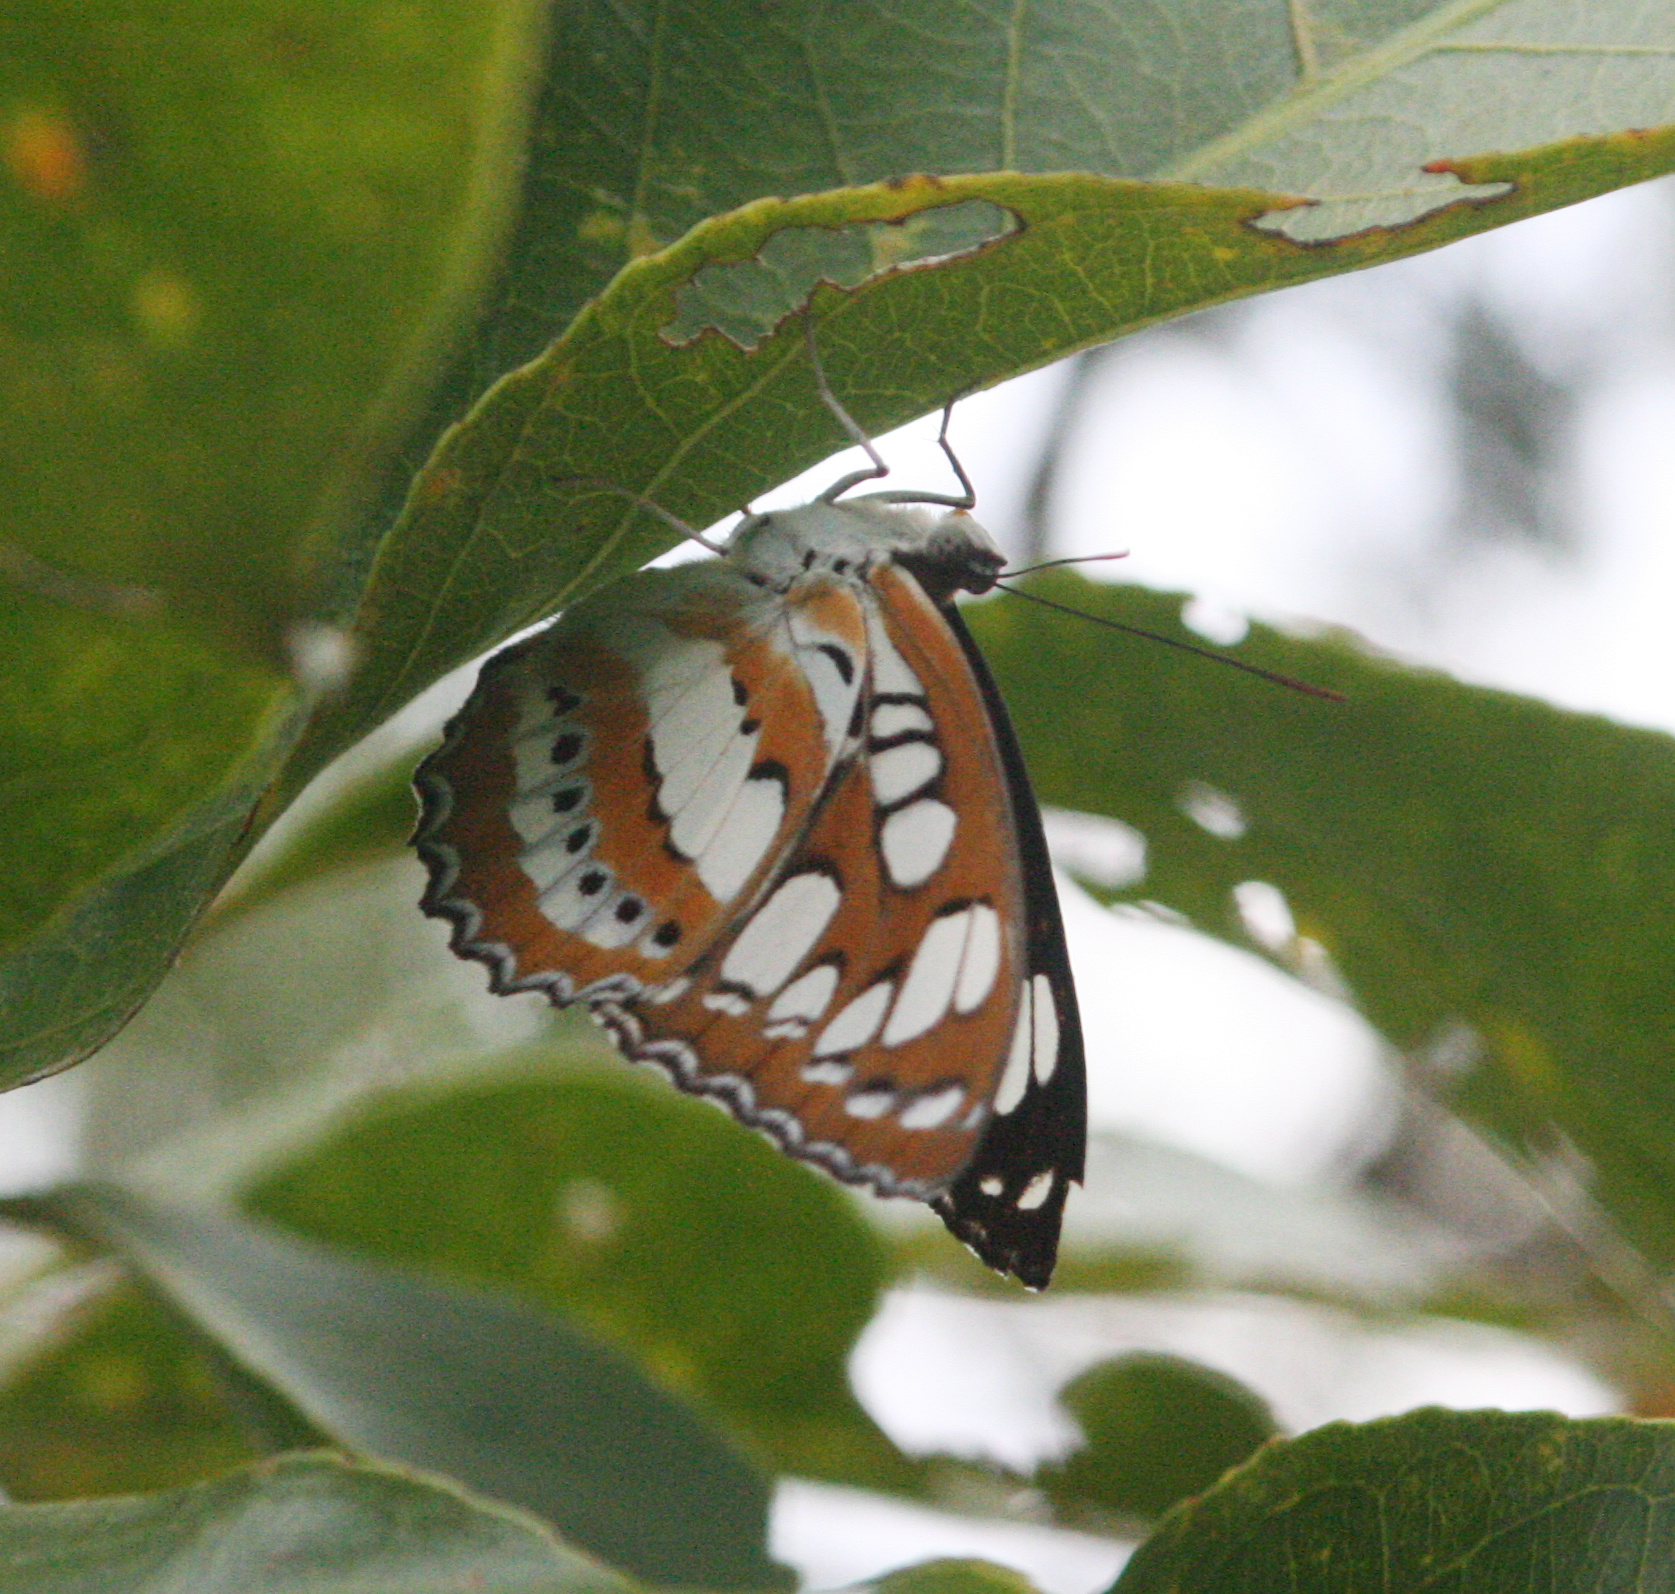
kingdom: Animalia
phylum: Arthropoda
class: Insecta
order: Lepidoptera
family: Nymphalidae
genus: Parathyma
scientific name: Parathyma perius
